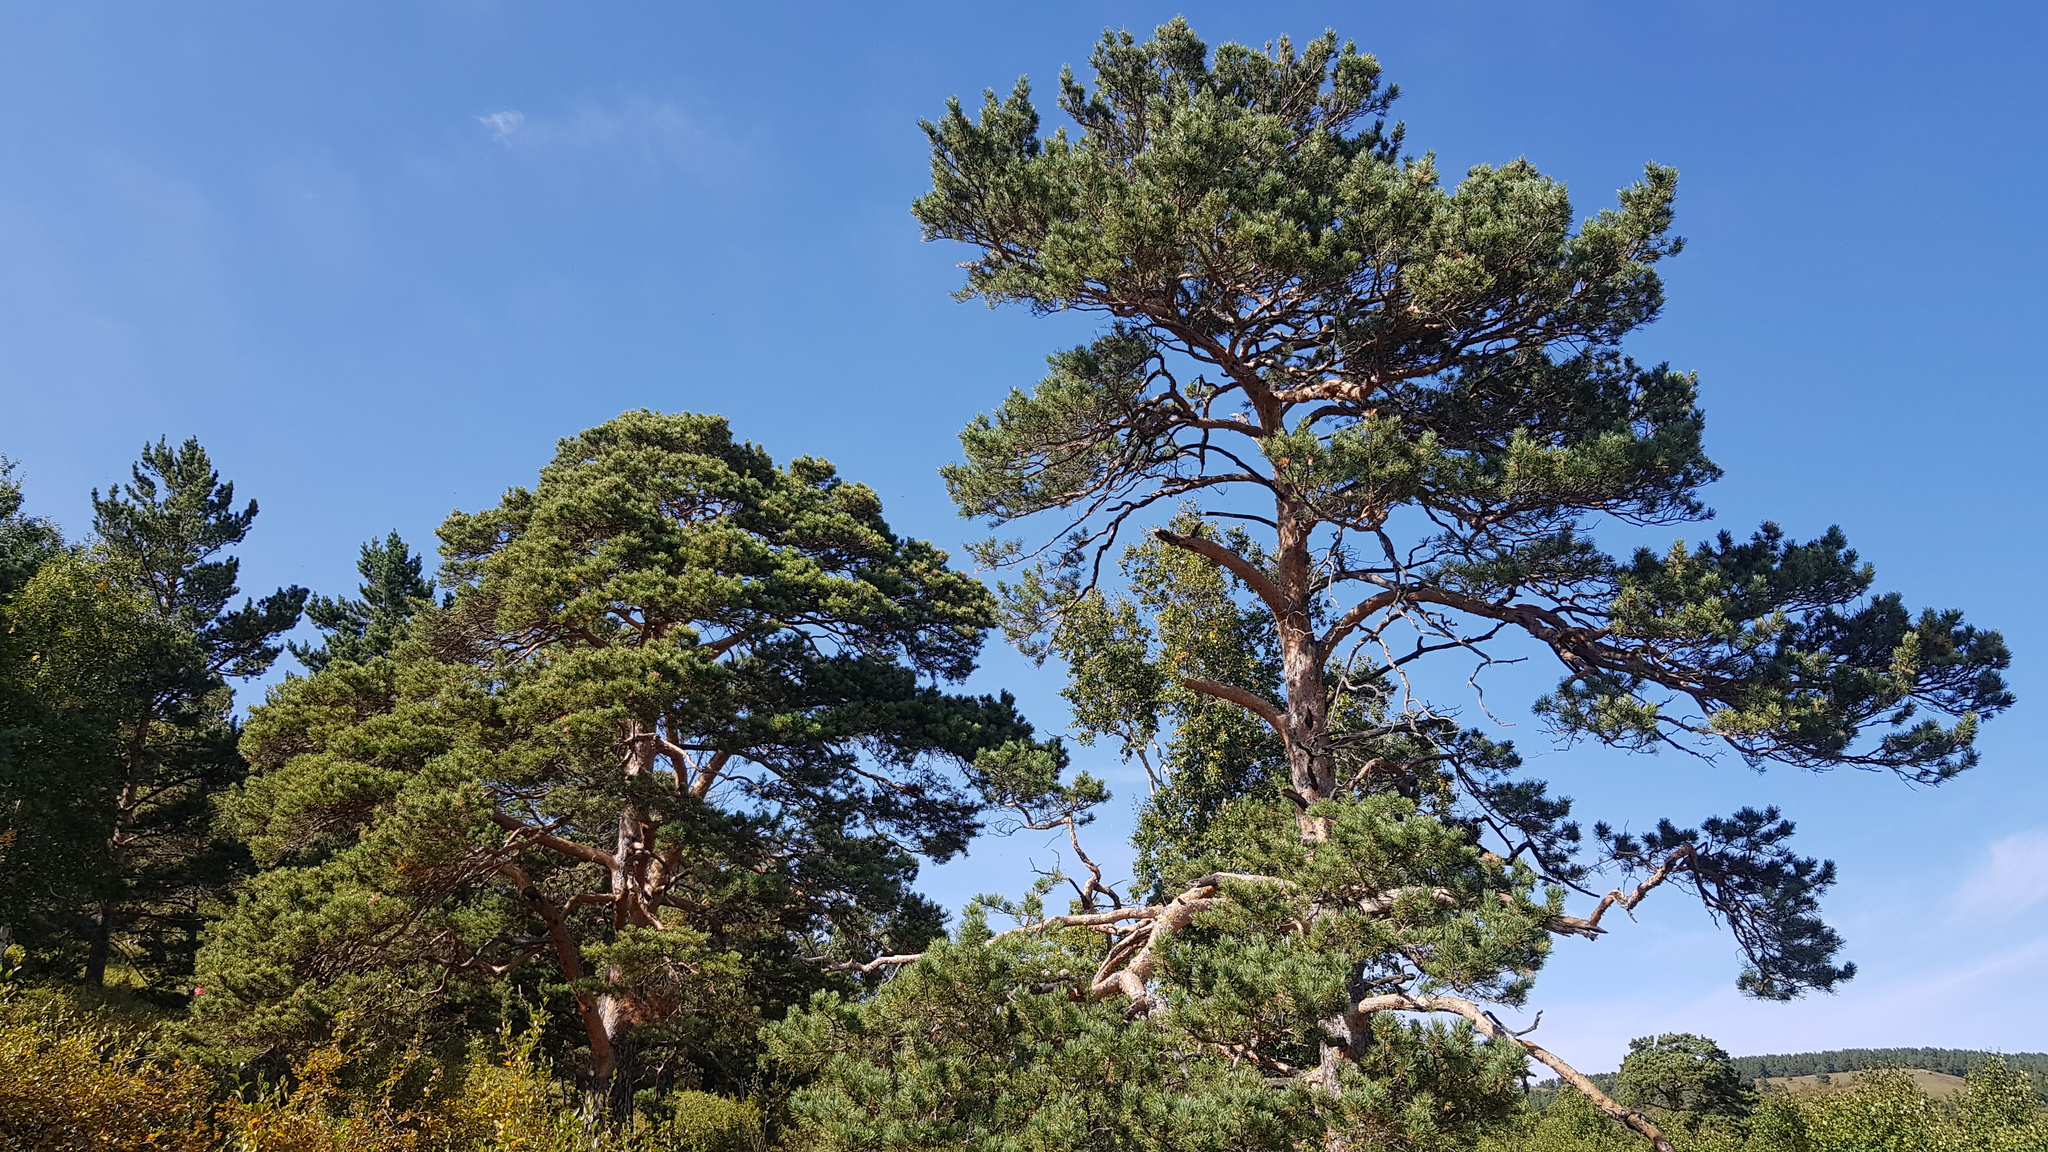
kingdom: Plantae
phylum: Tracheophyta
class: Pinopsida
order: Pinales
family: Pinaceae
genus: Pinus
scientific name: Pinus sylvestris
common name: Scots pine
